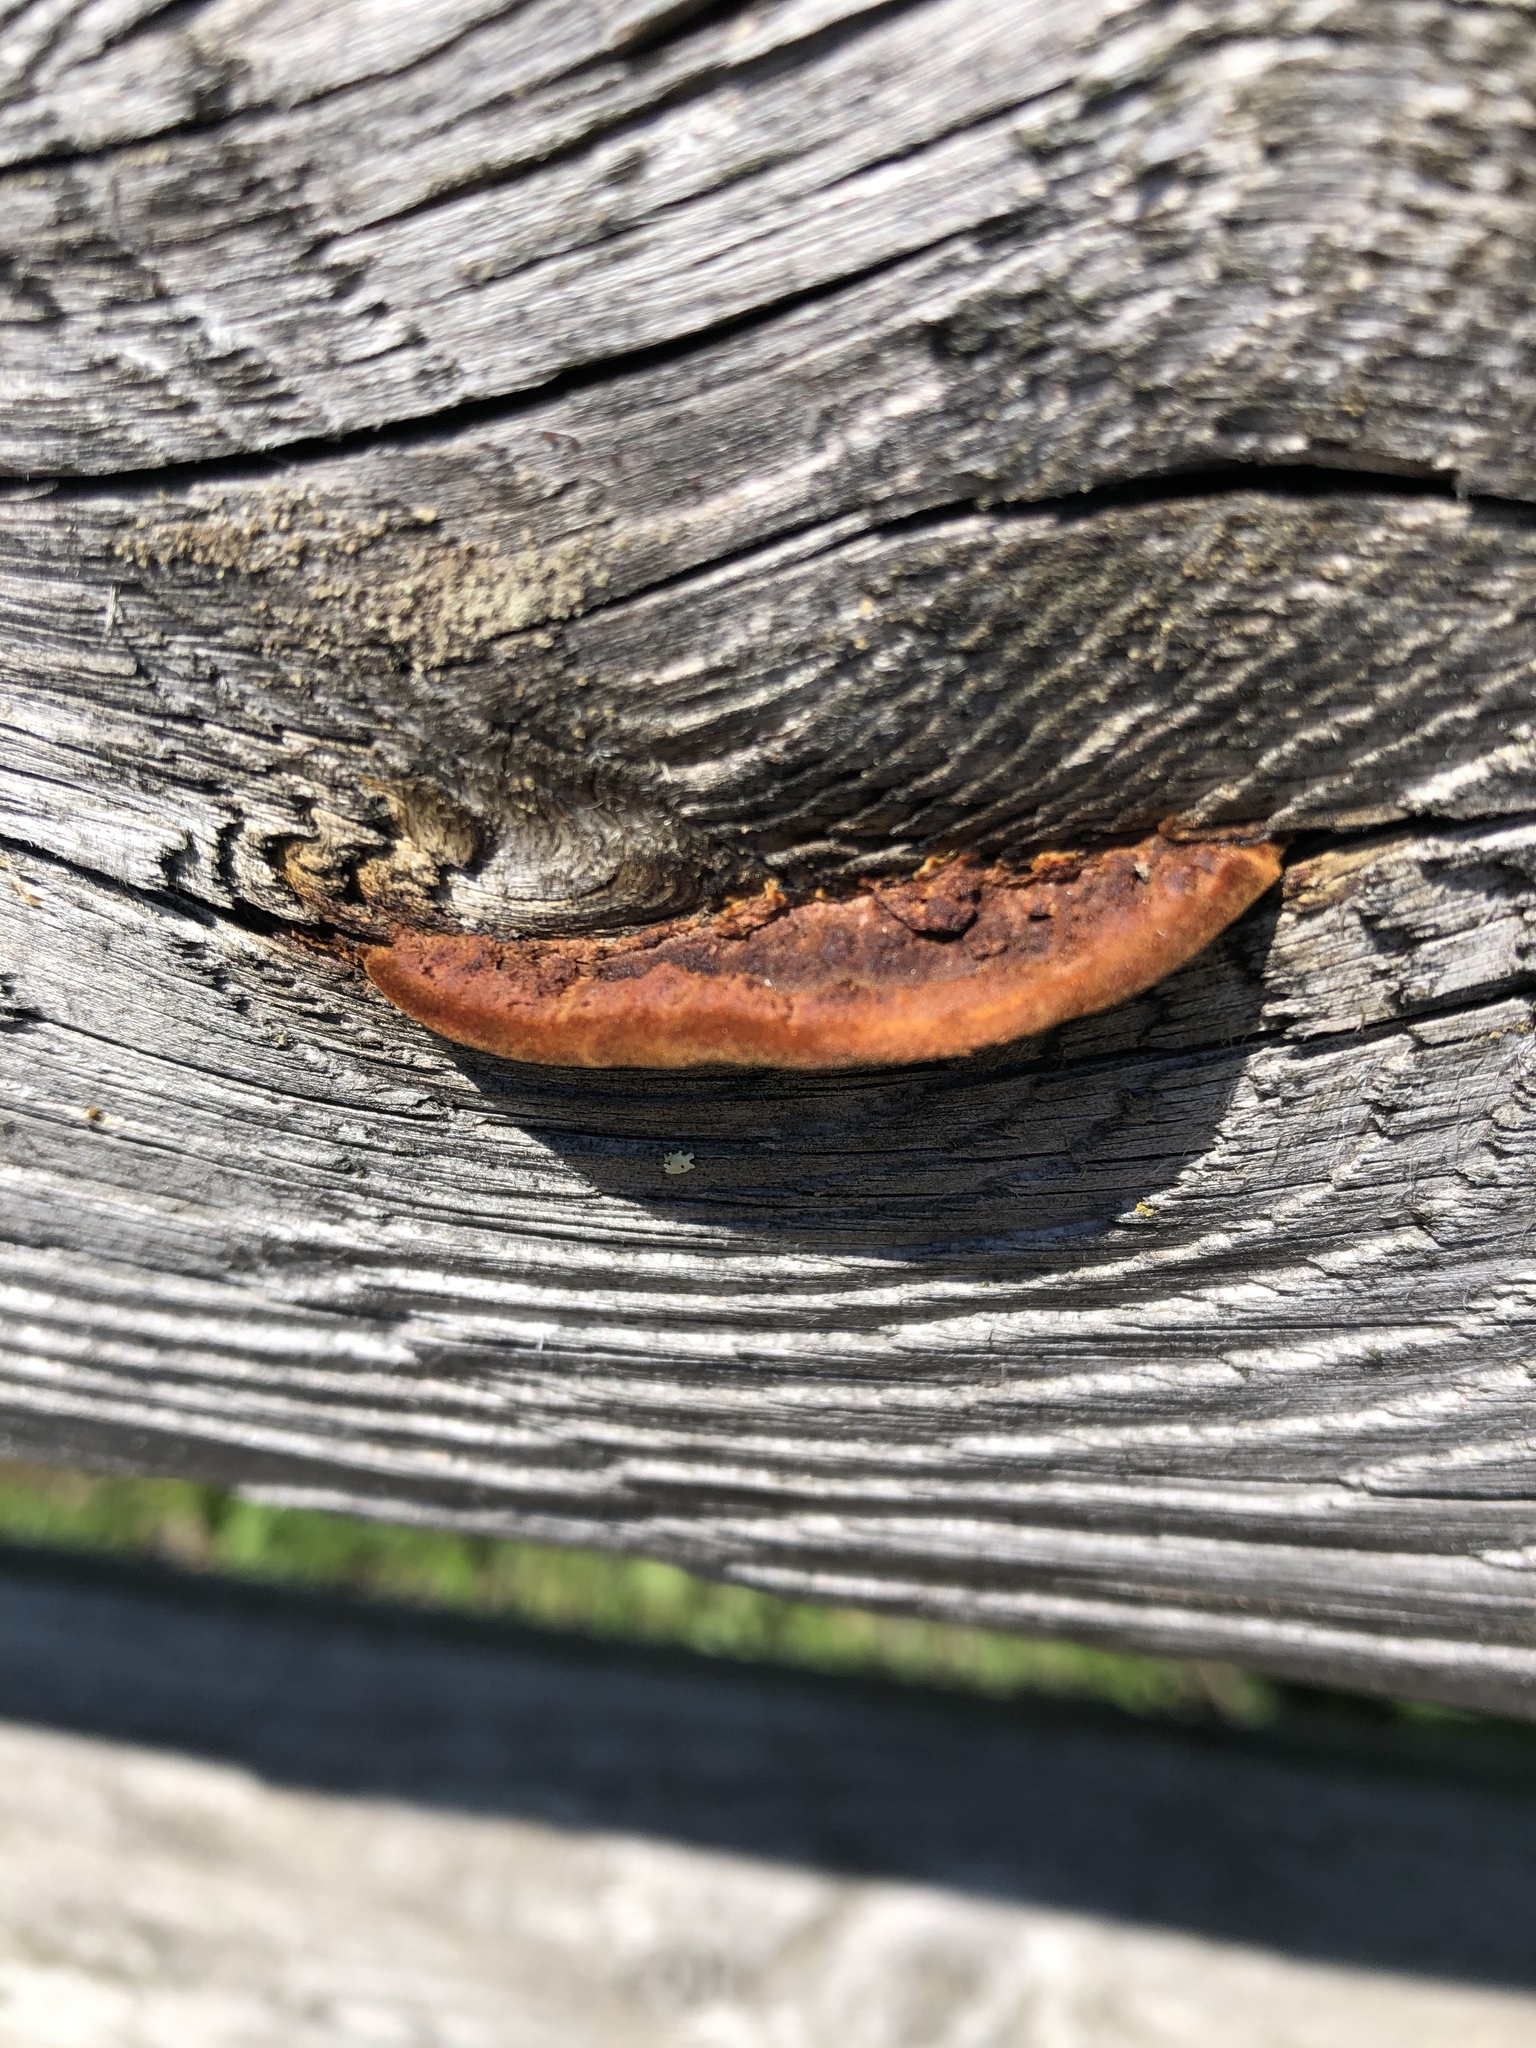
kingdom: Fungi
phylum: Basidiomycota
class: Agaricomycetes
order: Gloeophyllales
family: Gloeophyllaceae
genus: Gloeophyllum
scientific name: Gloeophyllum sepiarium
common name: Conifer mazegill
